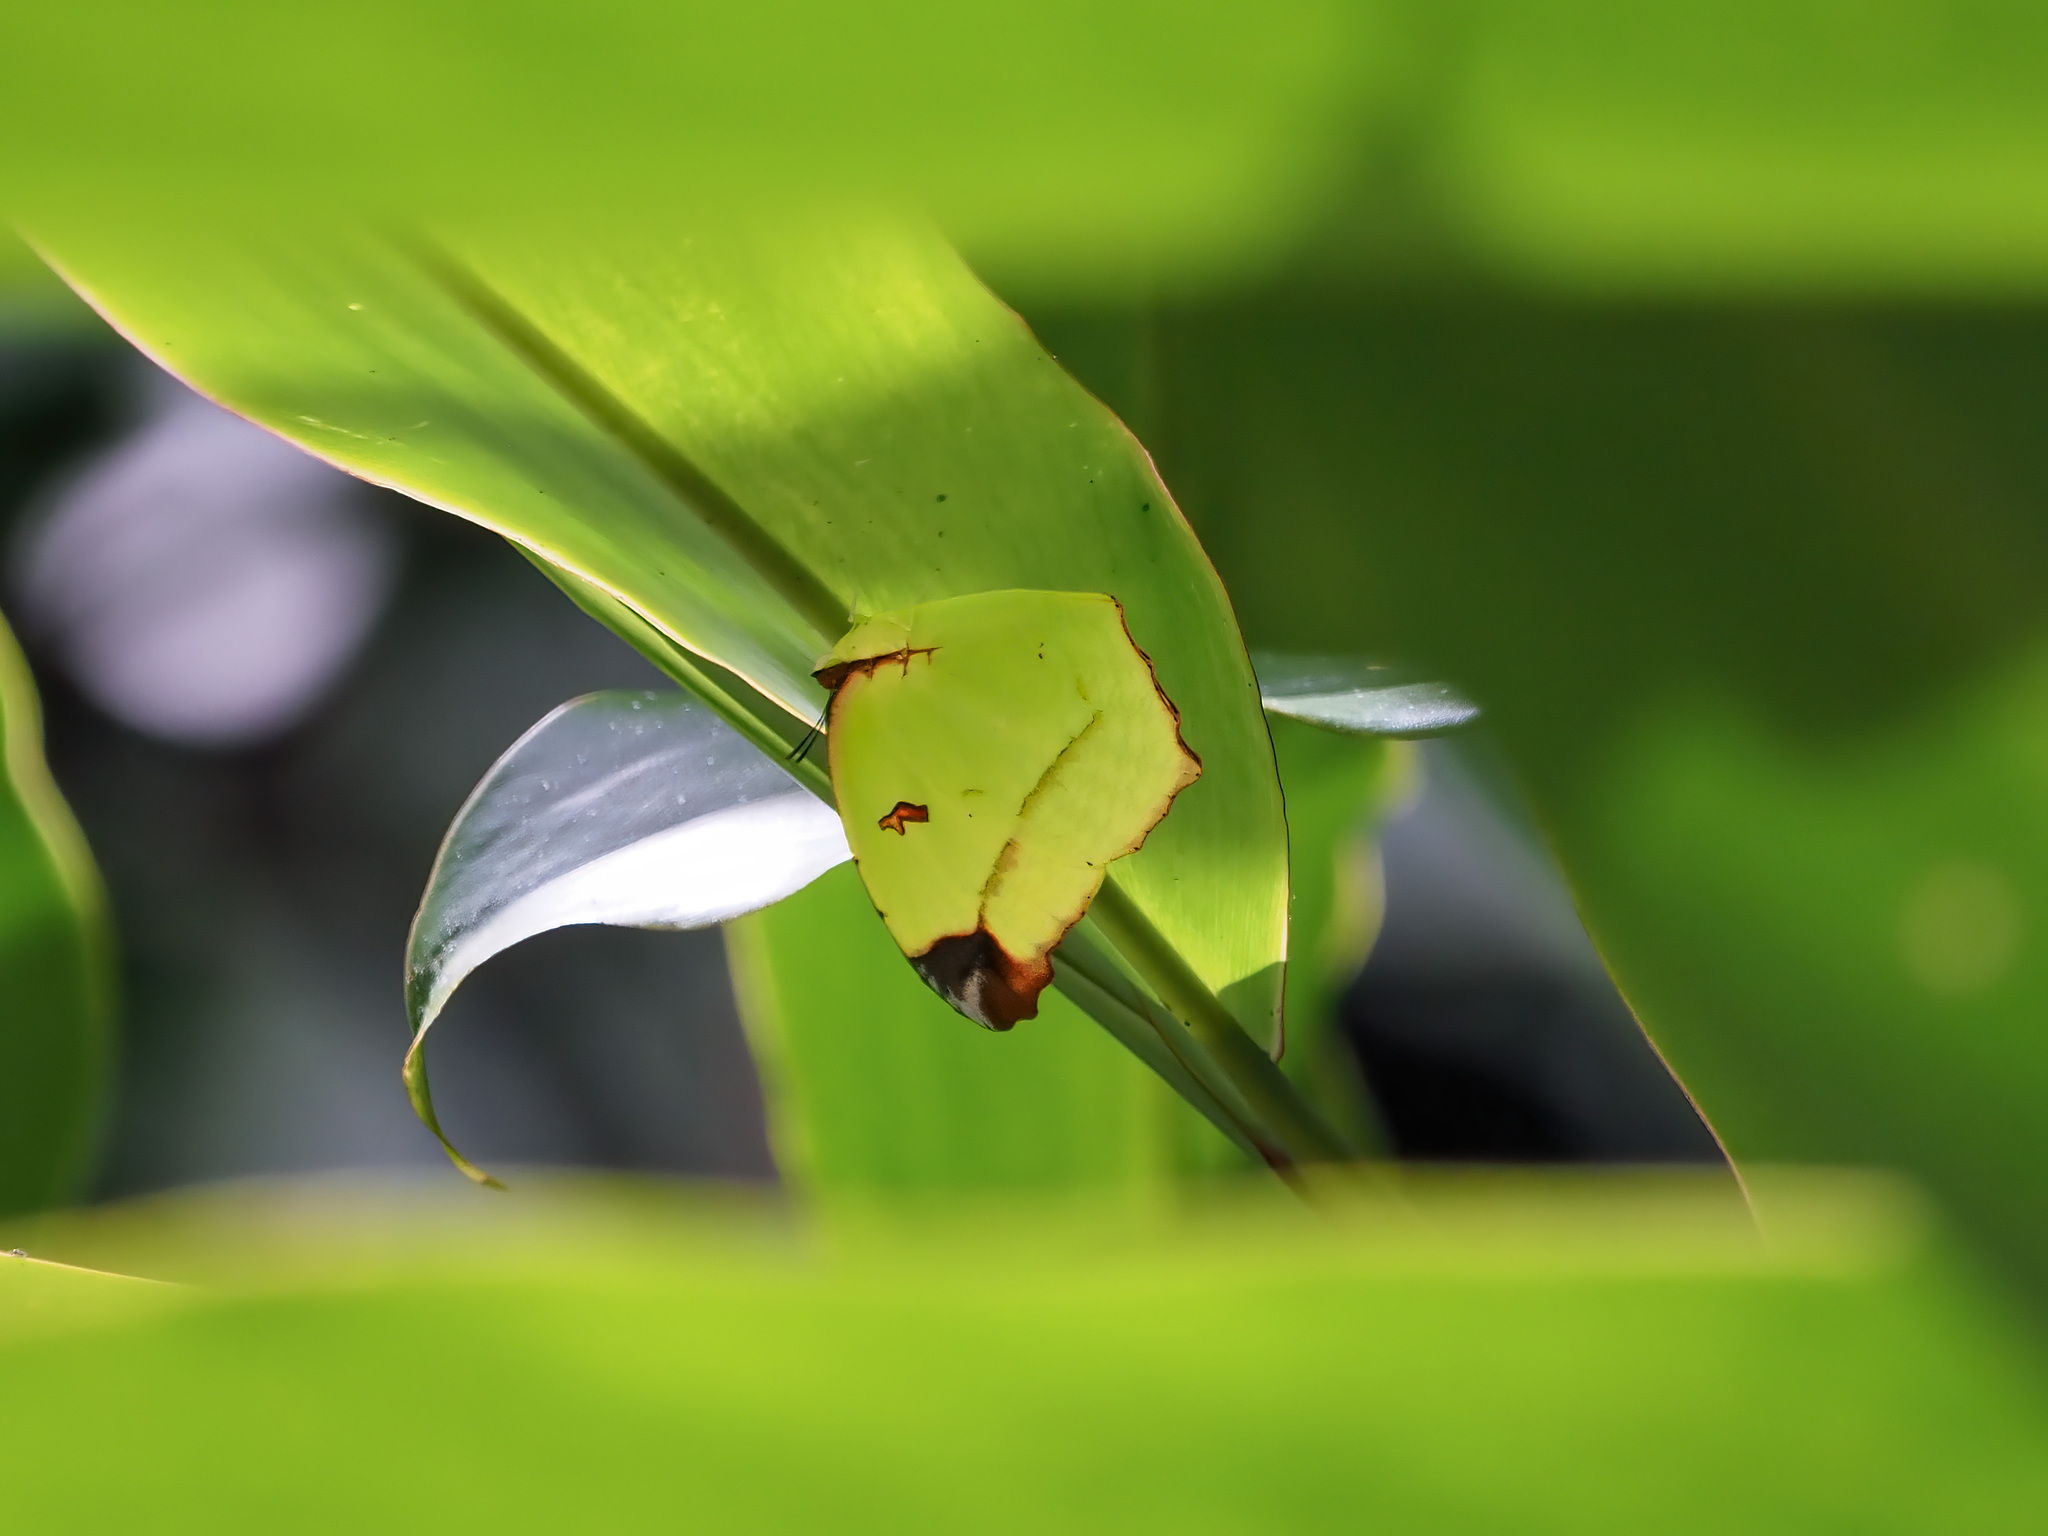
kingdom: Animalia
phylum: Arthropoda
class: Insecta
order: Lepidoptera
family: Pieridae
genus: Dercas
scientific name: Dercas gobrias
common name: Angled sulfur
